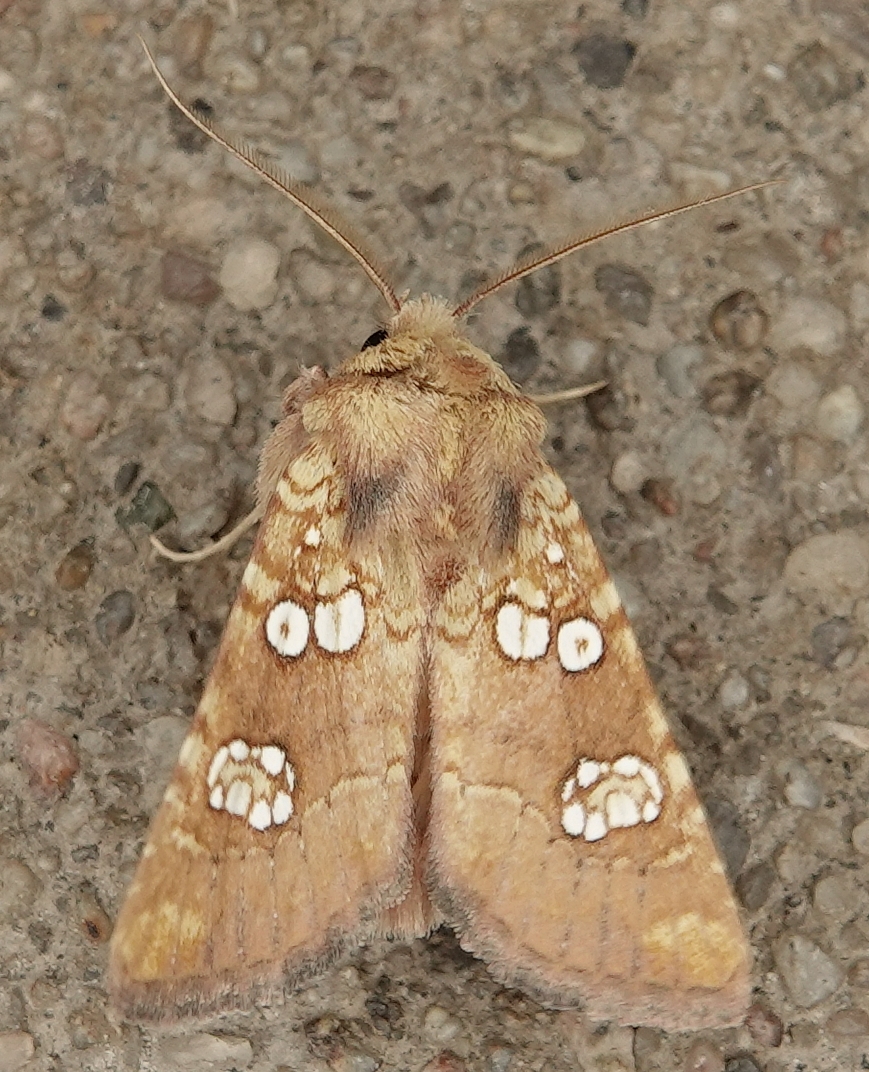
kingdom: Animalia
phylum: Arthropoda
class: Insecta
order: Lepidoptera
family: Noctuidae
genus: Hydroeciodes
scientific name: Hydroeciodes serrata
